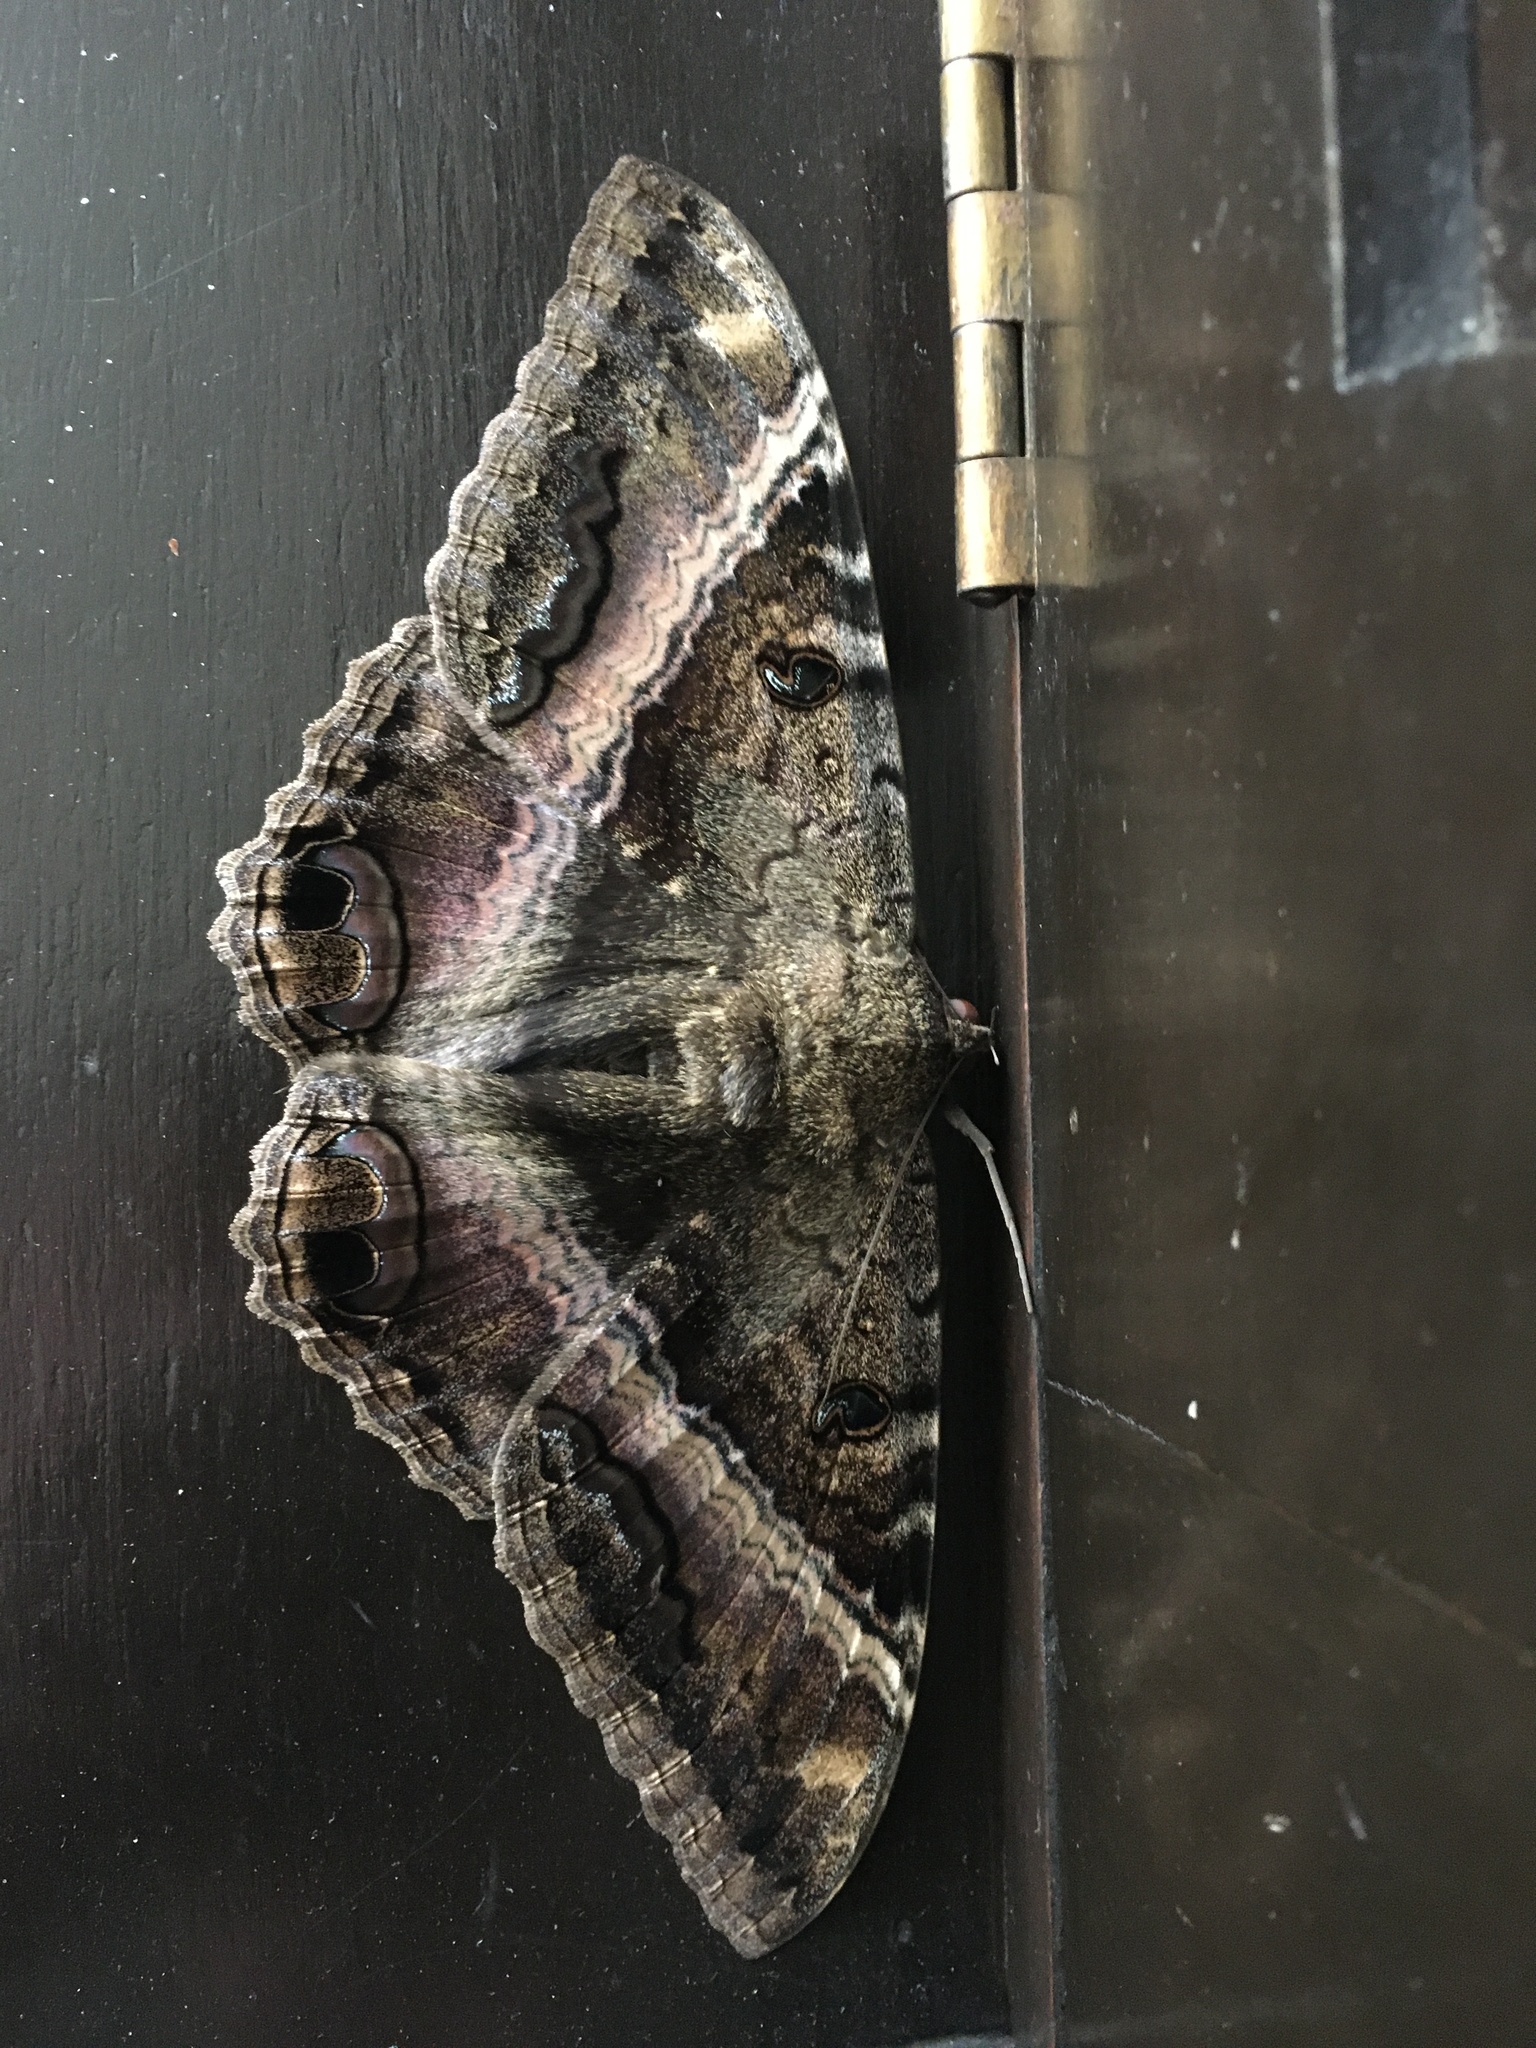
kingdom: Animalia
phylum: Arthropoda
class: Insecta
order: Lepidoptera
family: Erebidae
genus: Ascalapha
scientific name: Ascalapha odorata
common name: Black witch
